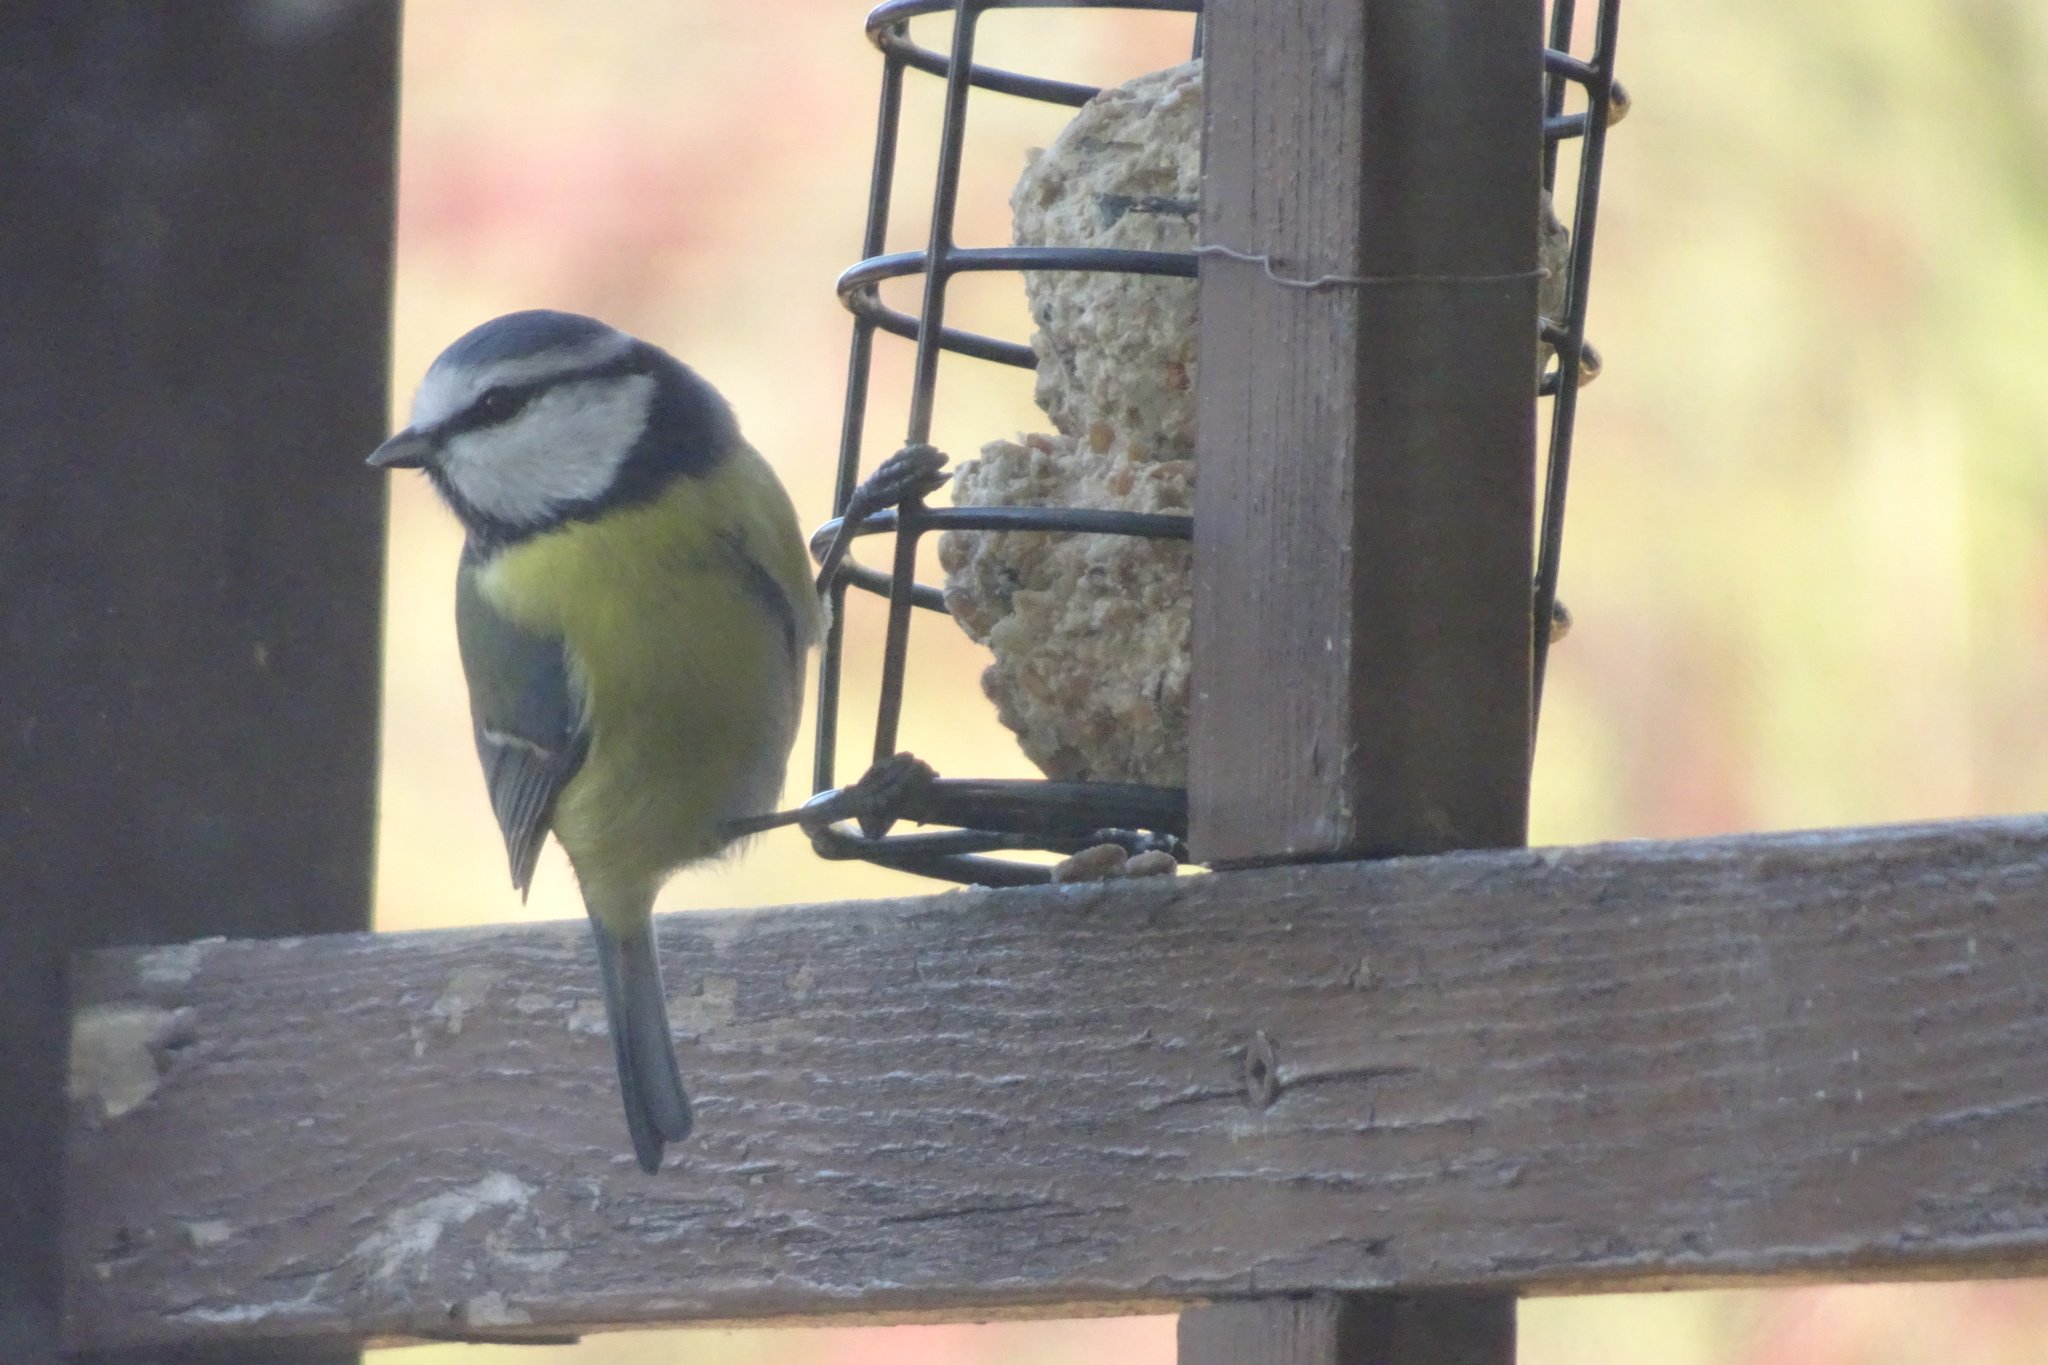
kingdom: Animalia
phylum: Chordata
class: Aves
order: Passeriformes
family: Paridae
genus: Cyanistes
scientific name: Cyanistes caeruleus
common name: Eurasian blue tit
